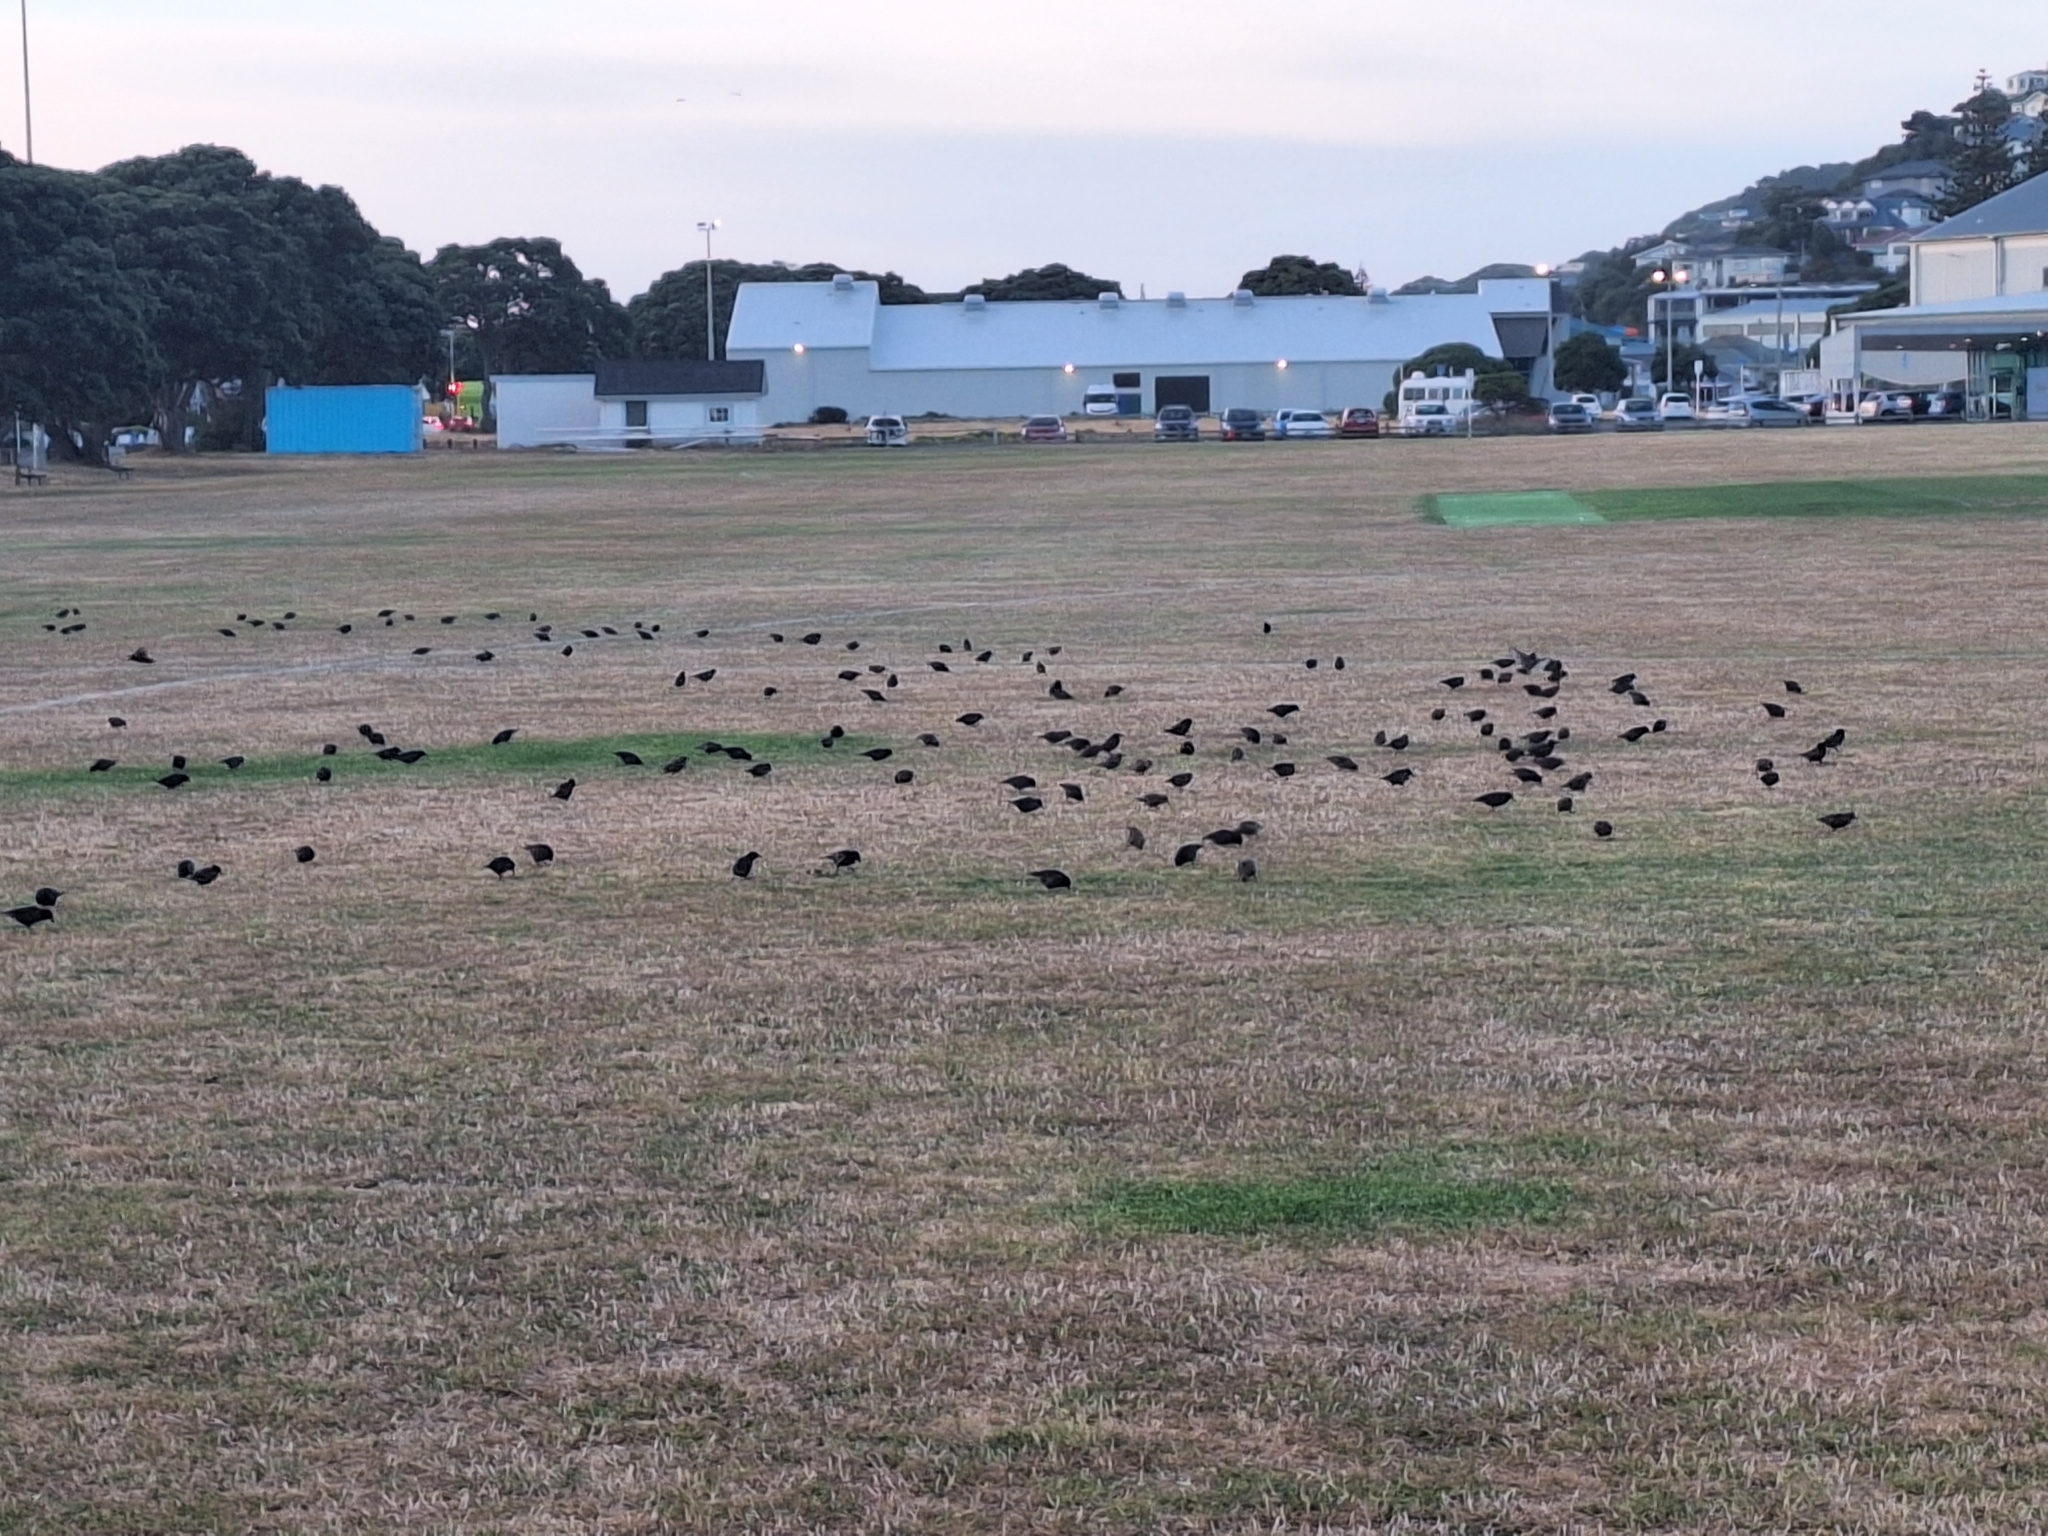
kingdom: Animalia
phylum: Chordata
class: Aves
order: Passeriformes
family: Sturnidae
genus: Sturnus
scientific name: Sturnus vulgaris
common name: Common starling
